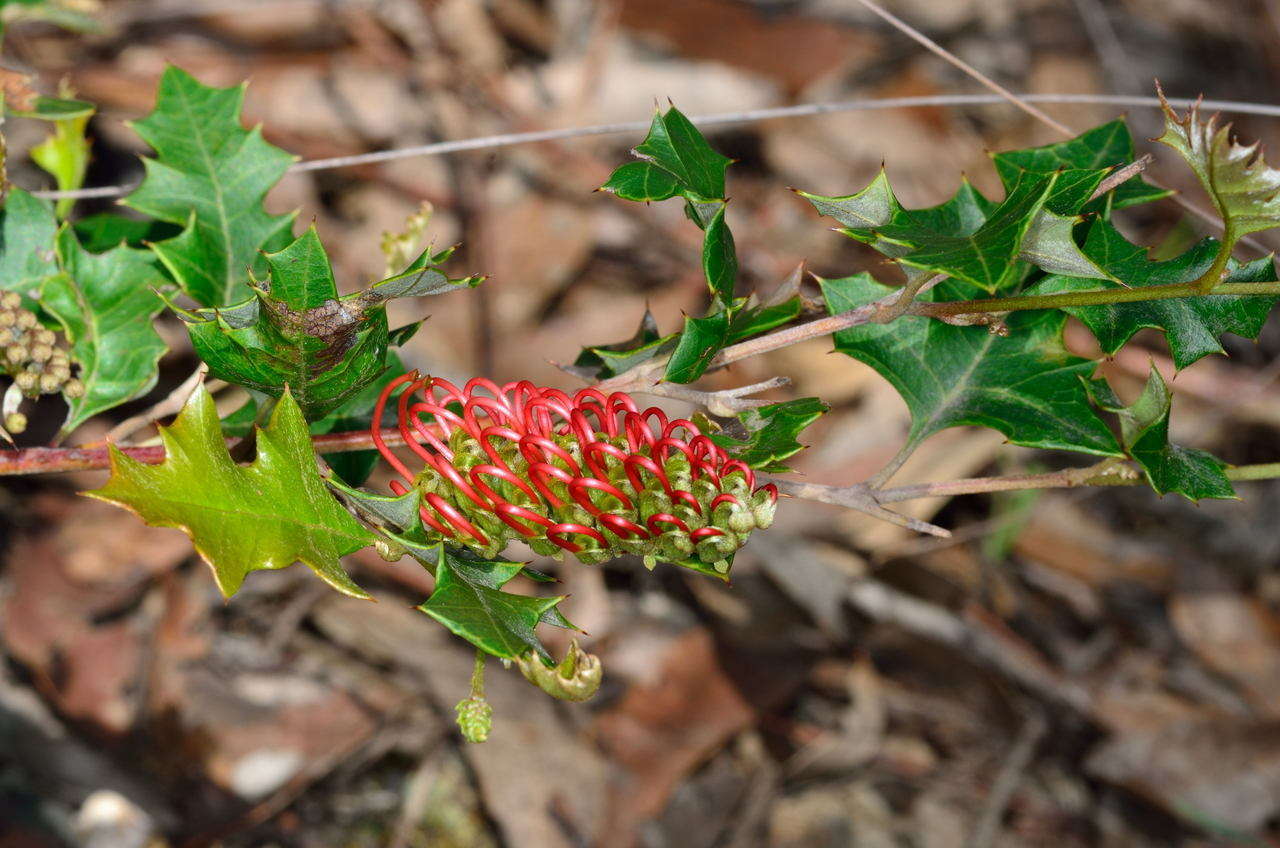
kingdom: Plantae
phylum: Tracheophyta
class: Magnoliopsida
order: Proteales
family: Proteaceae
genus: Grevillea
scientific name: Grevillea steiglitziana
